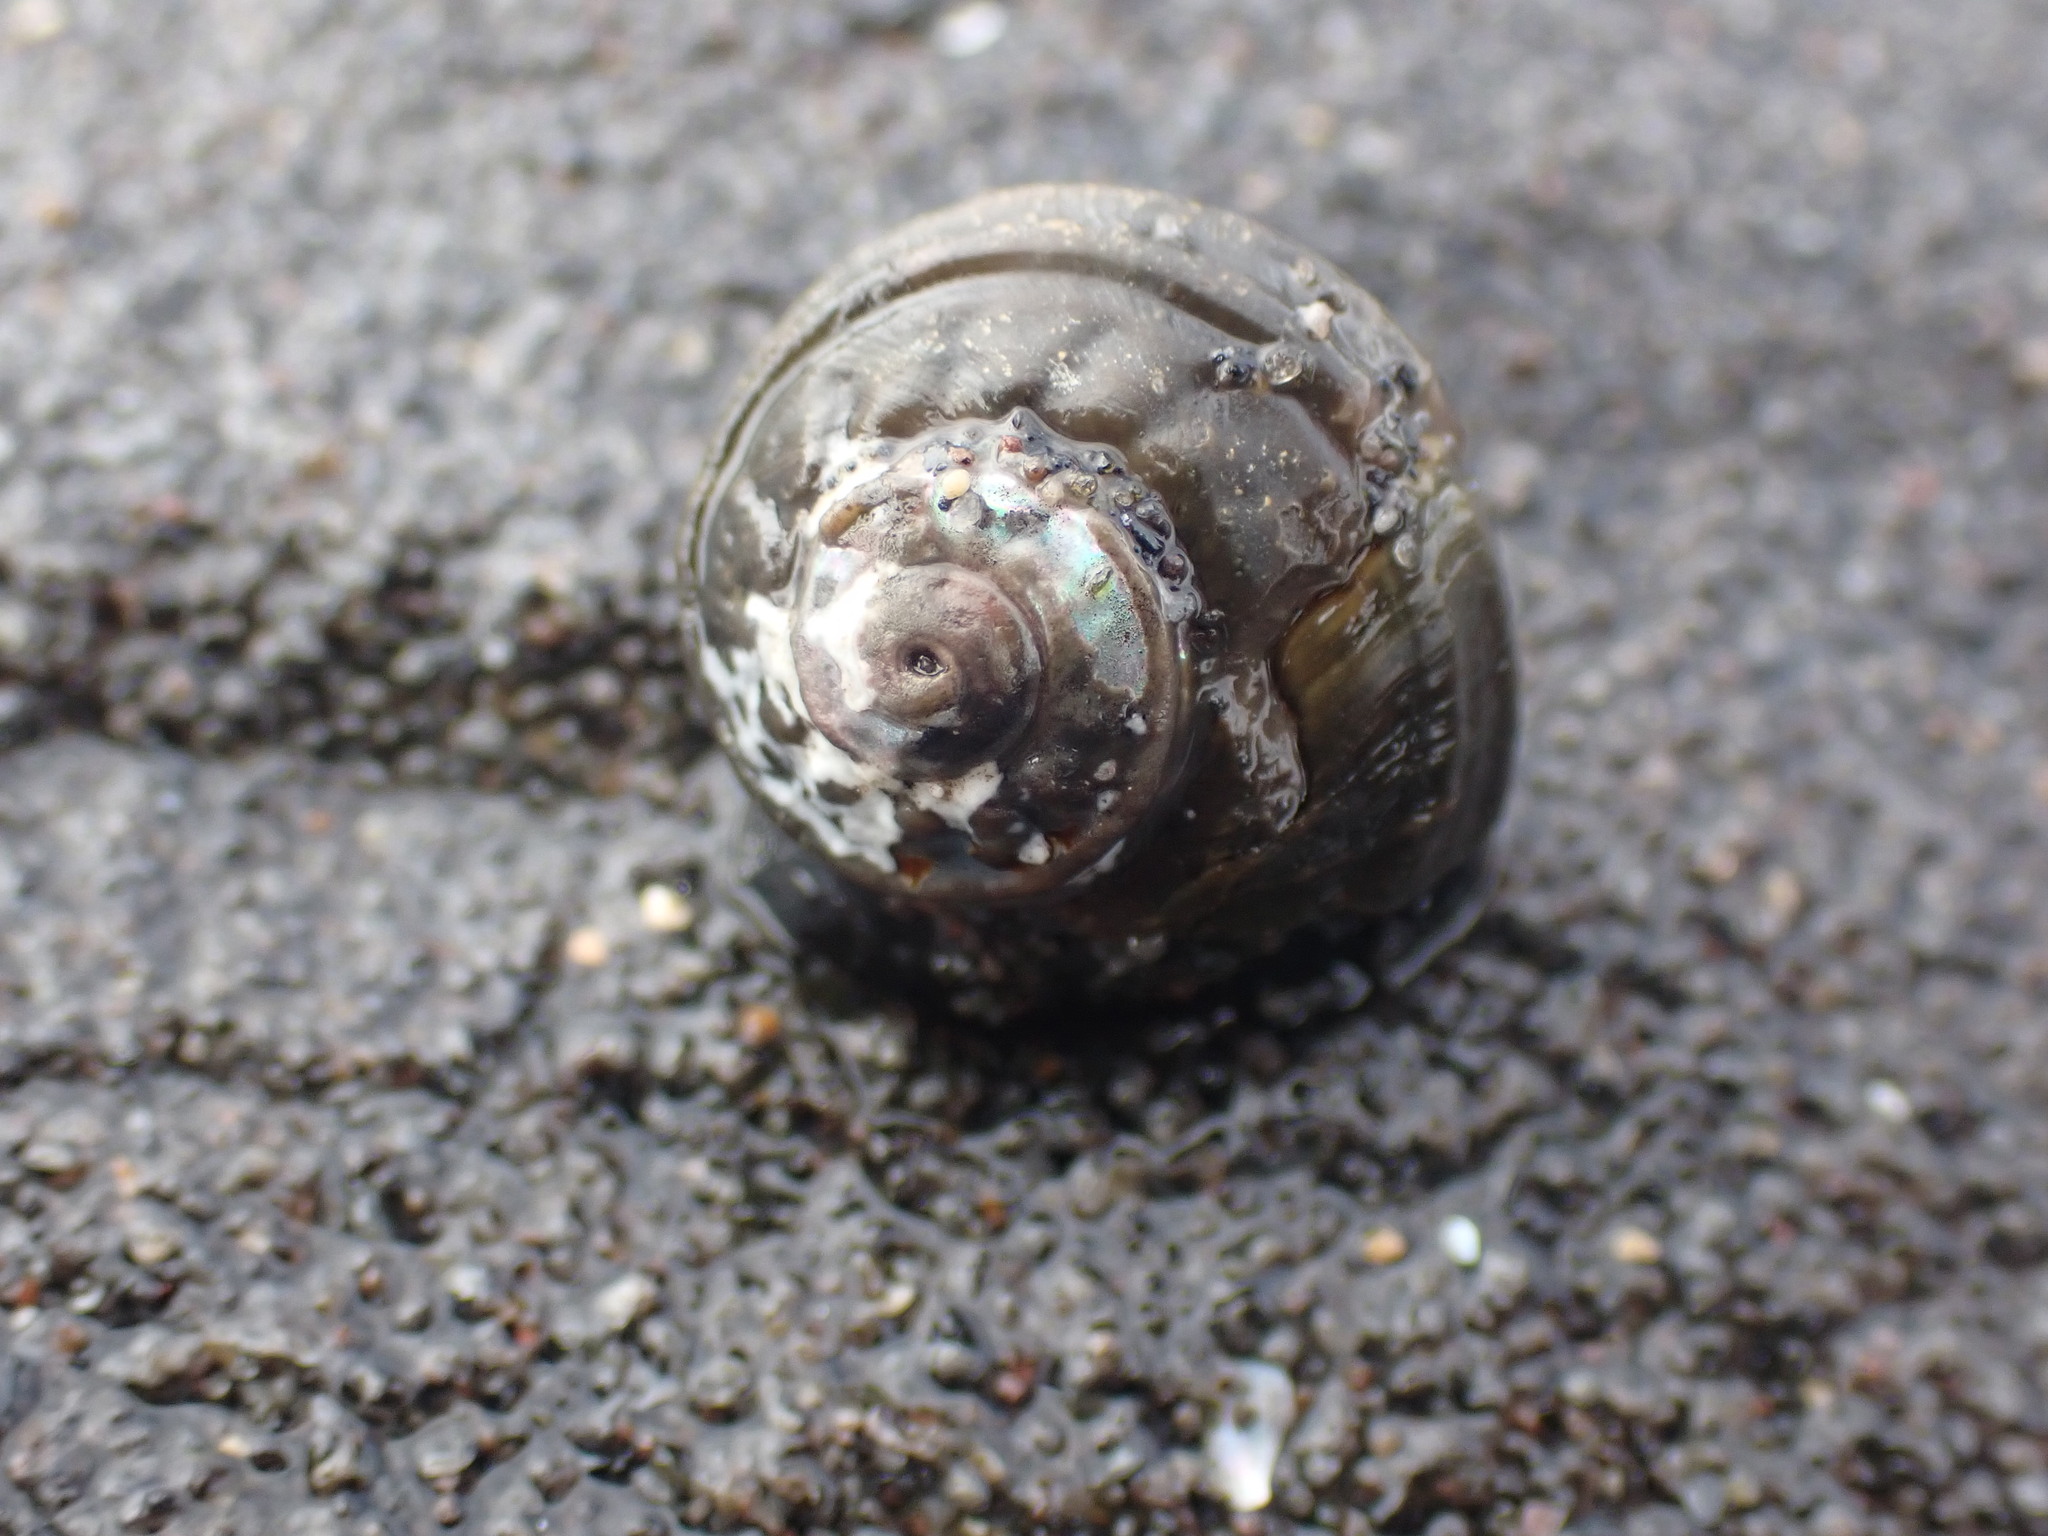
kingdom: Animalia
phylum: Mollusca
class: Gastropoda
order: Trochida
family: Turbinidae
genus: Lunella
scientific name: Lunella smaragda
